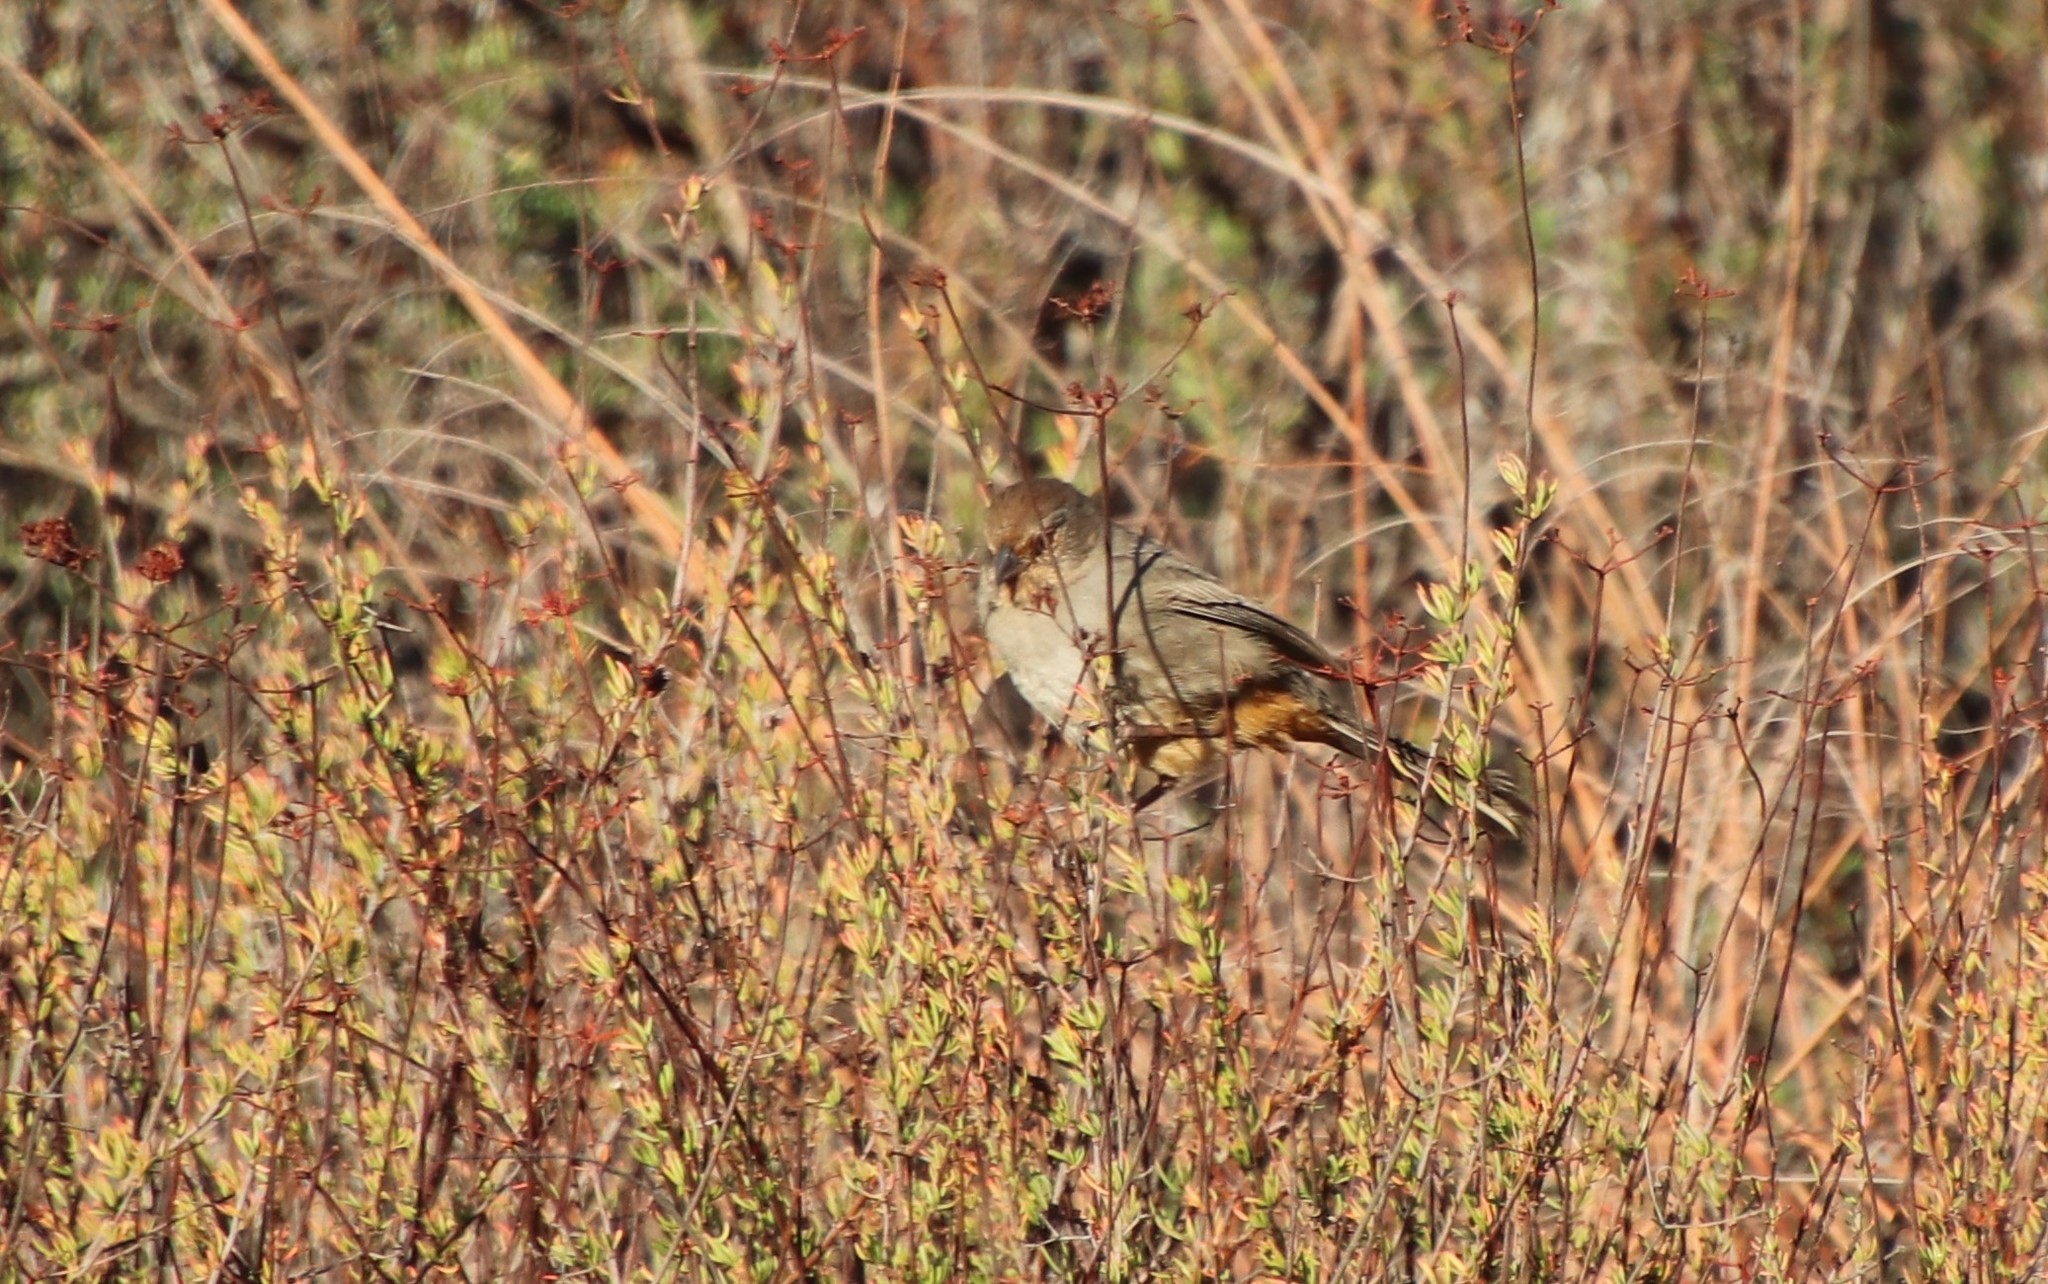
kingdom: Animalia
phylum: Chordata
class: Aves
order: Passeriformes
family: Passerellidae
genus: Melozone
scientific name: Melozone crissalis
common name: California towhee
